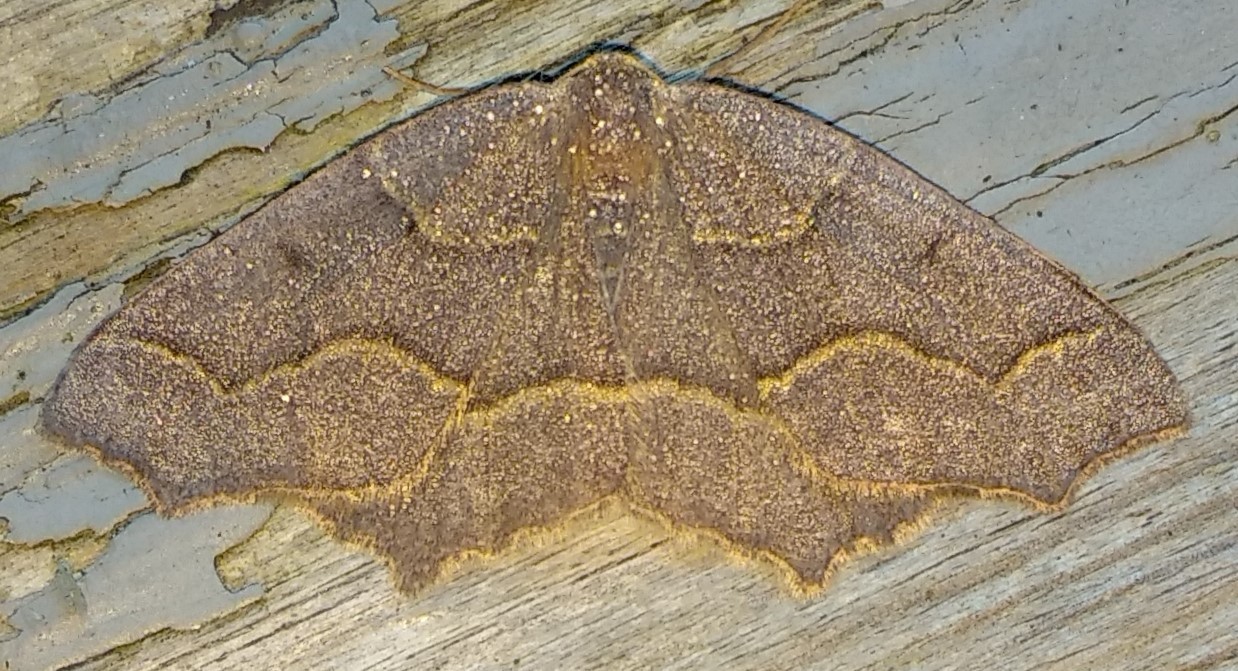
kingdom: Animalia
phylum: Arthropoda
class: Insecta
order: Lepidoptera
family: Geometridae
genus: Lambdina
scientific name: Lambdina fiscellaria
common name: Hemlock looper
